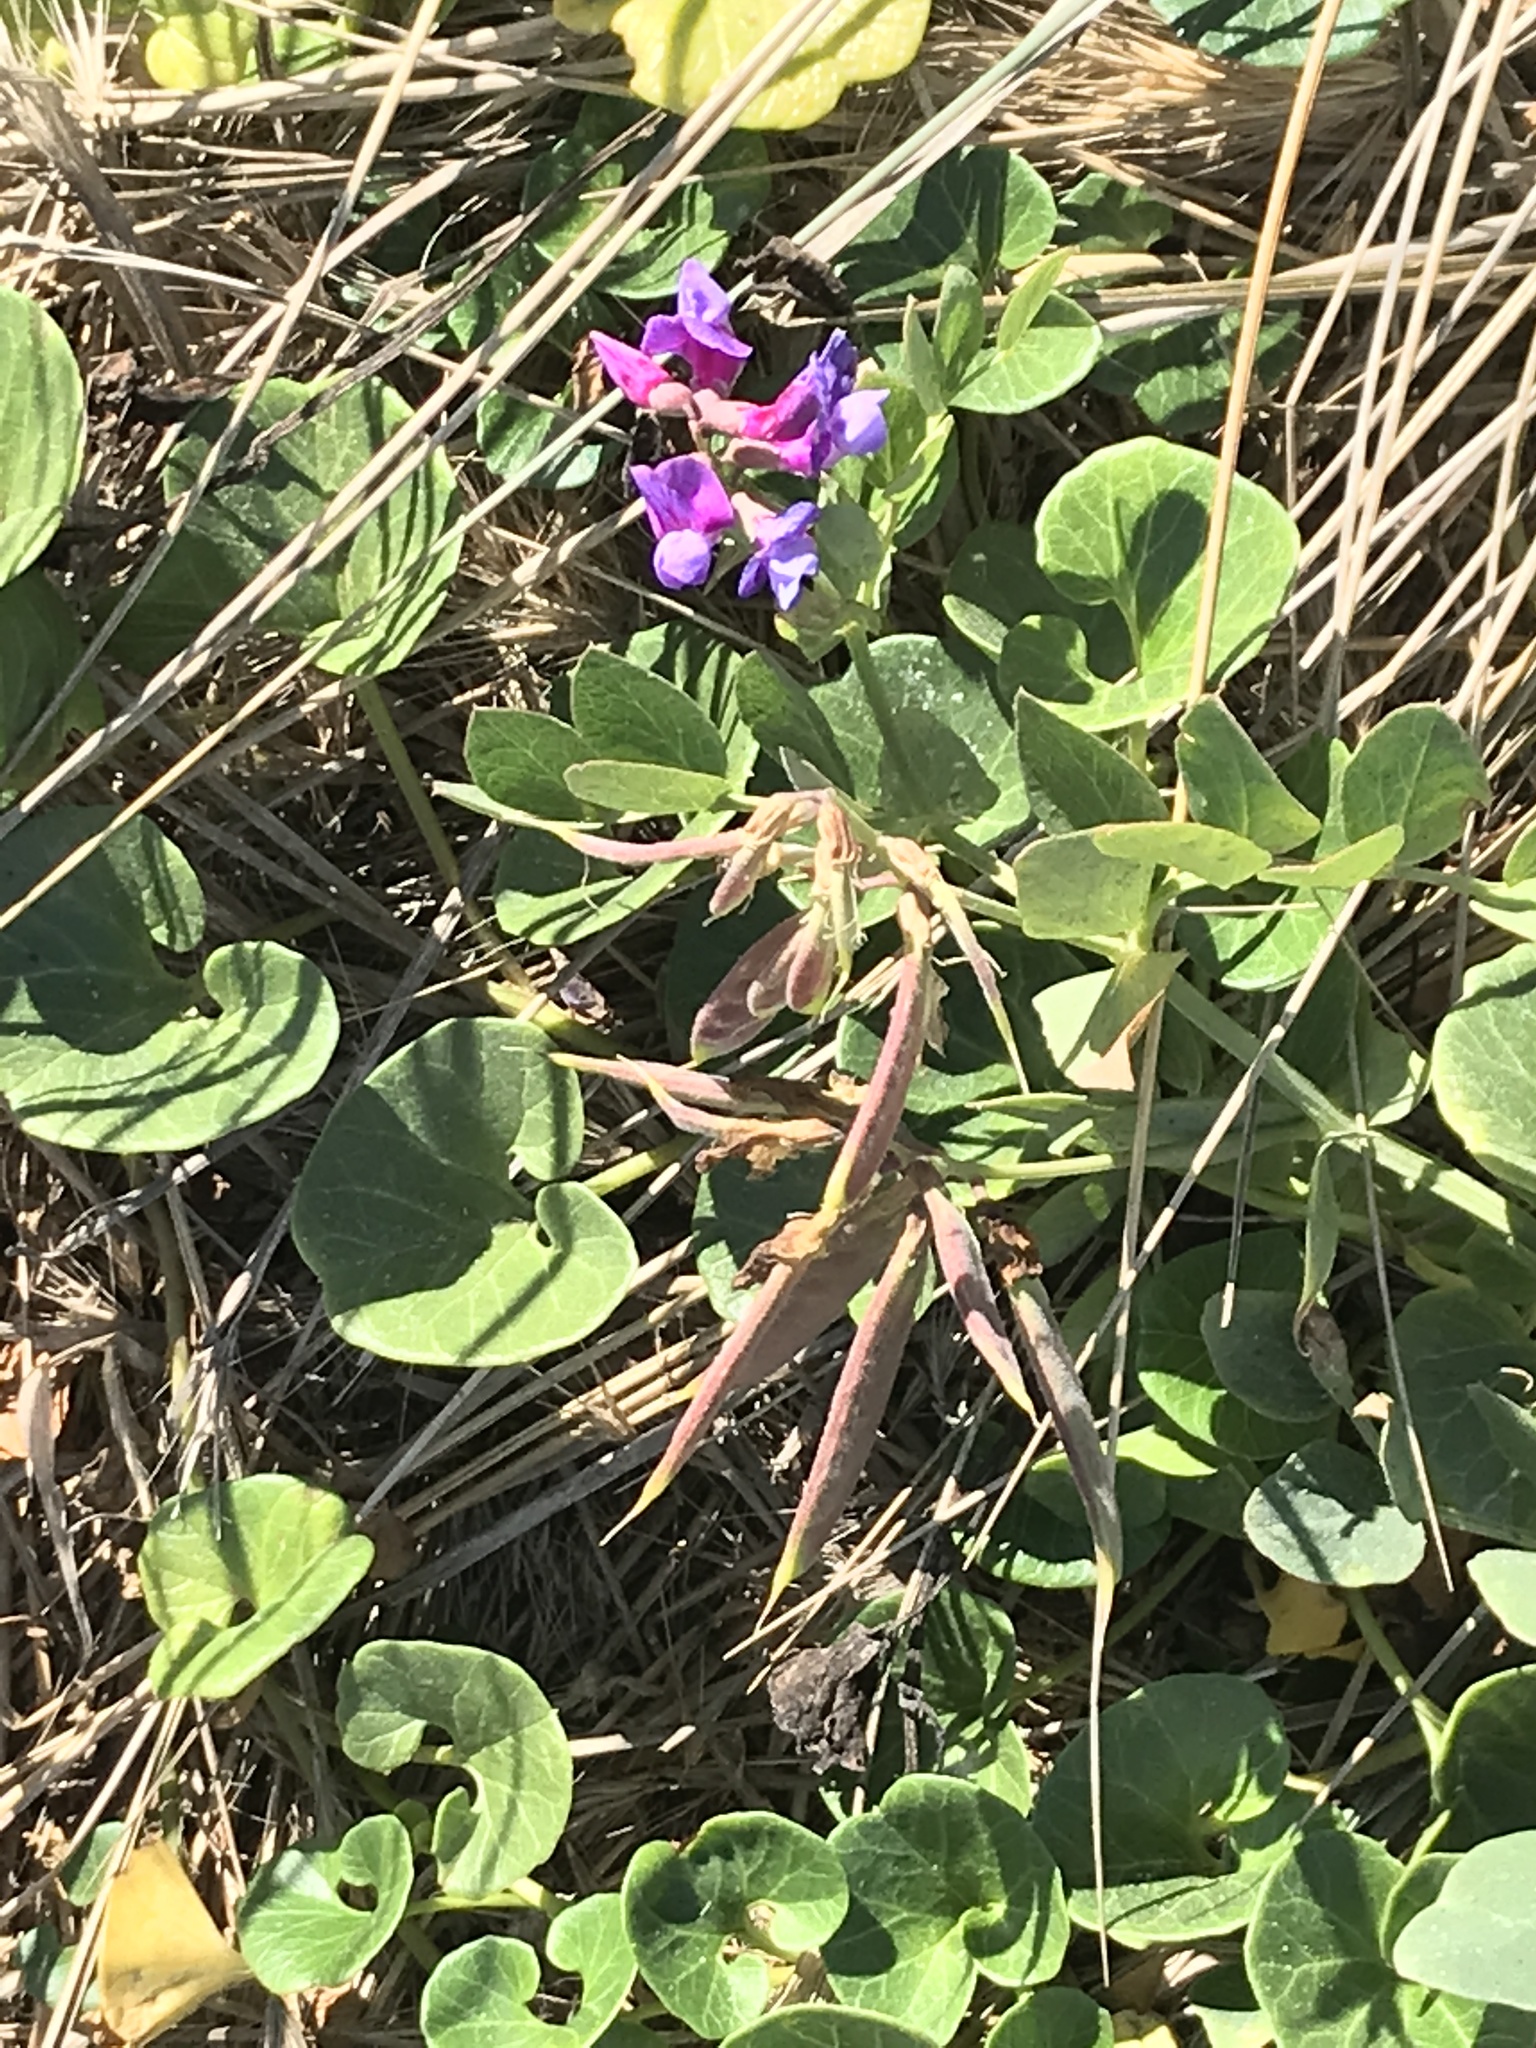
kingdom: Plantae
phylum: Tracheophyta
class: Magnoliopsida
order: Fabales
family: Fabaceae
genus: Lathyrus
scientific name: Lathyrus japonicus
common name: Sea pea
